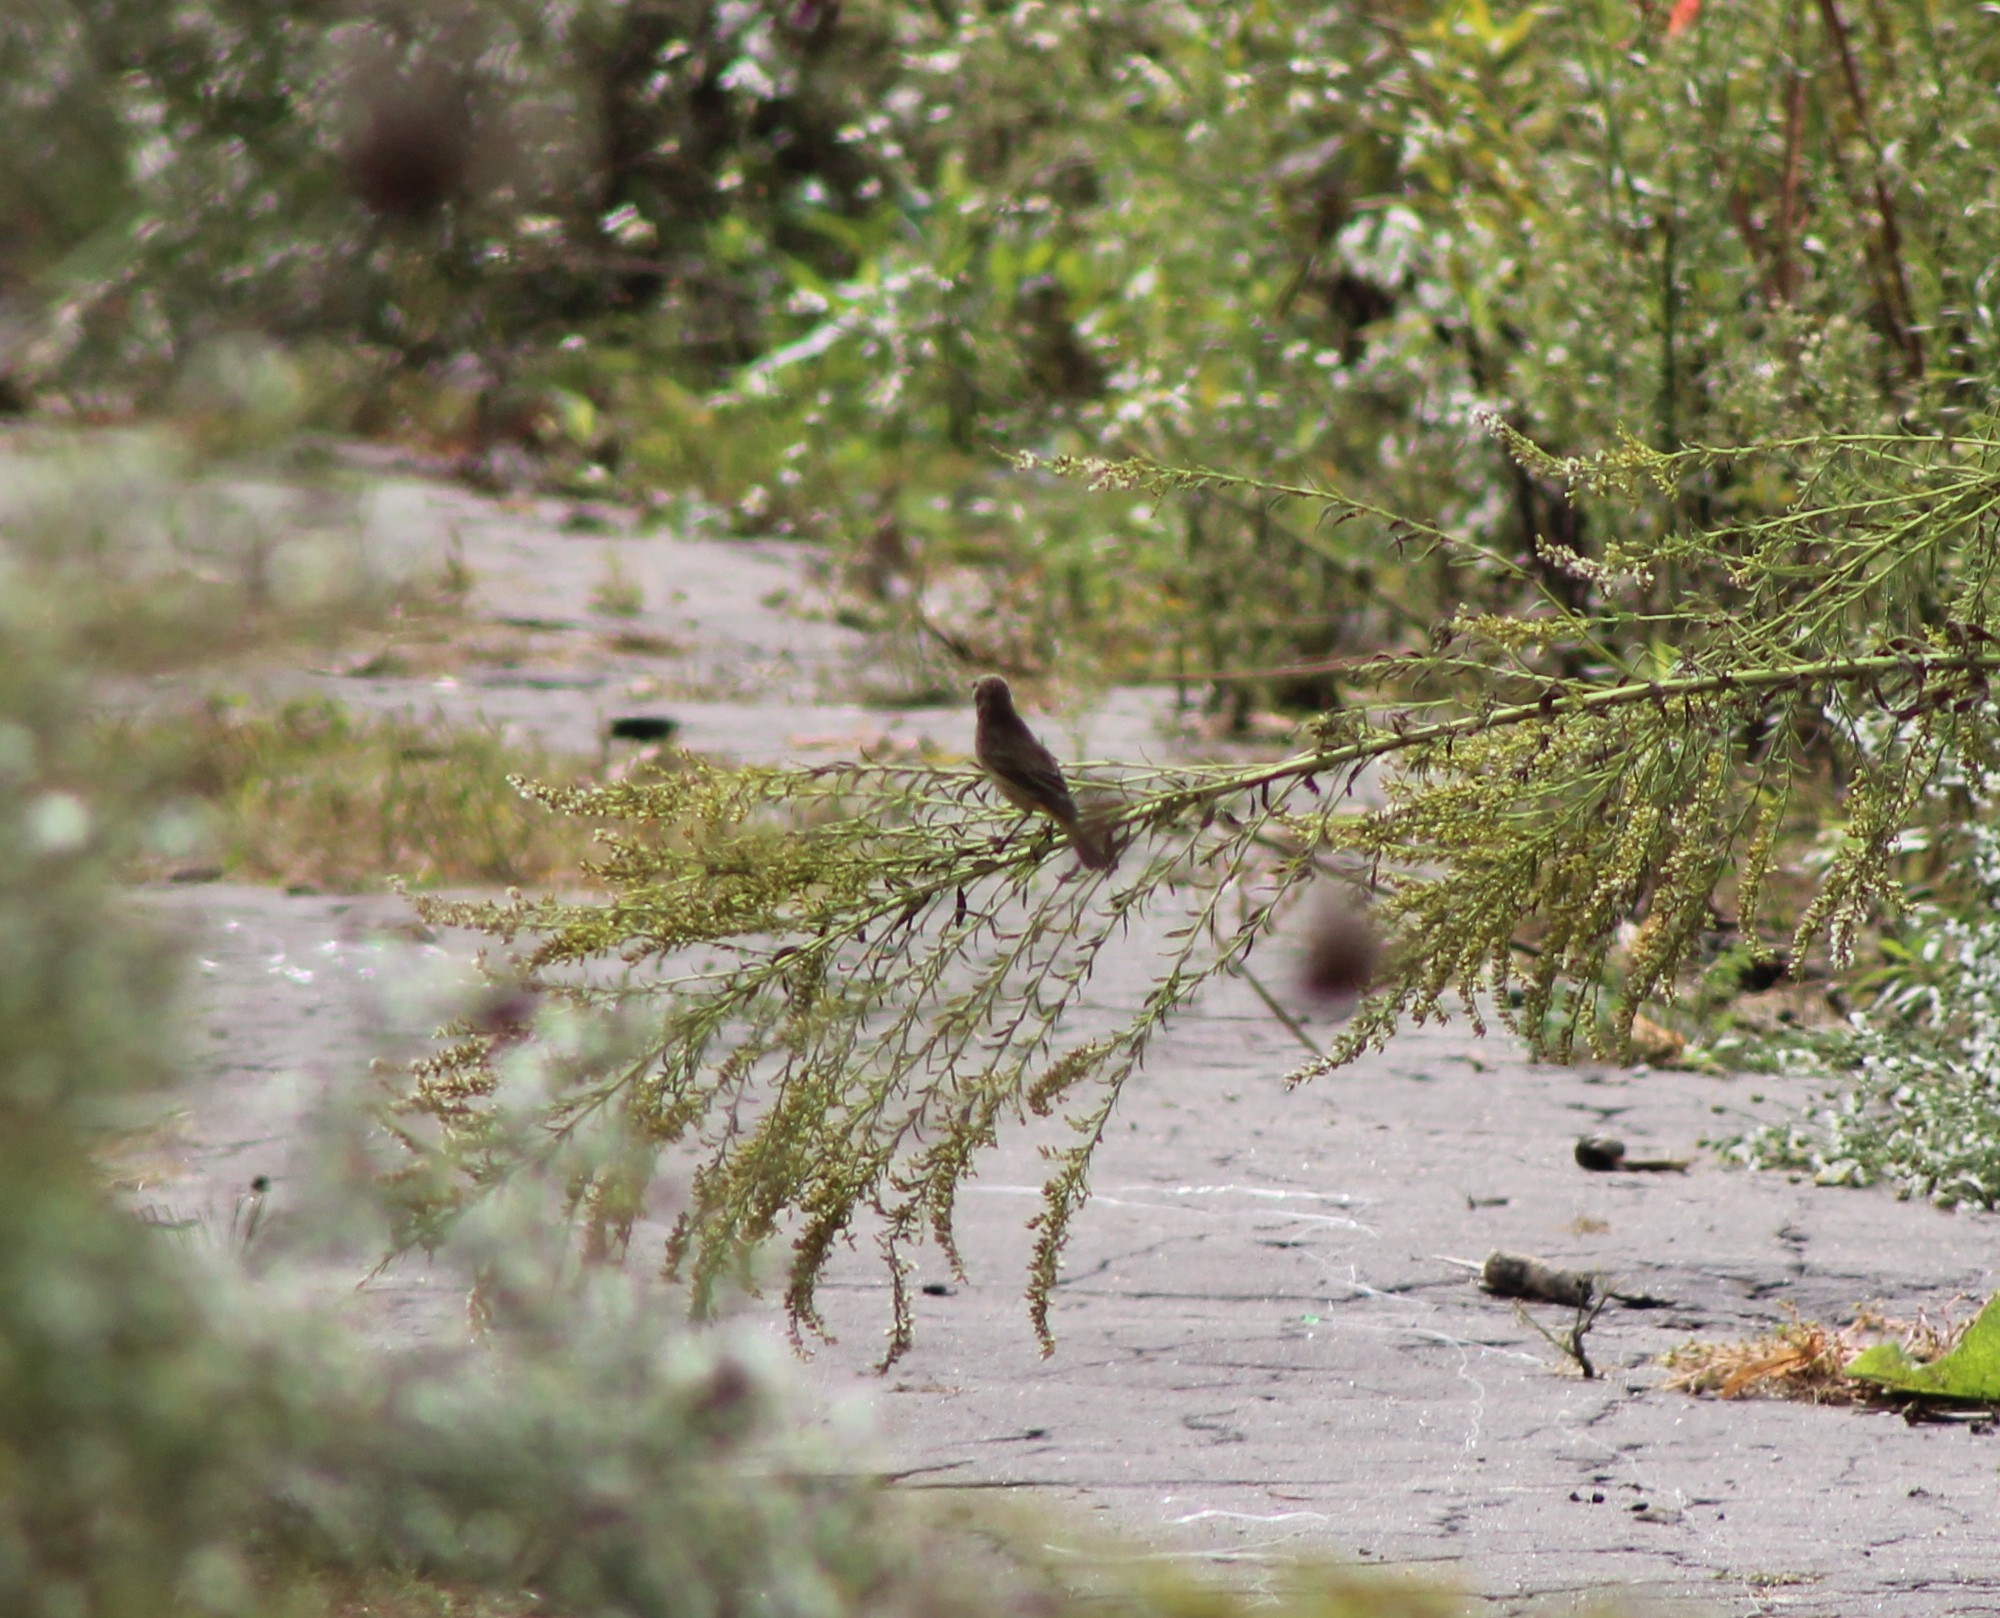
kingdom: Animalia
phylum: Chordata
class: Aves
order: Passeriformes
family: Parulidae
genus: Setophaga
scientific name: Setophaga palmarum
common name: Palm warbler
